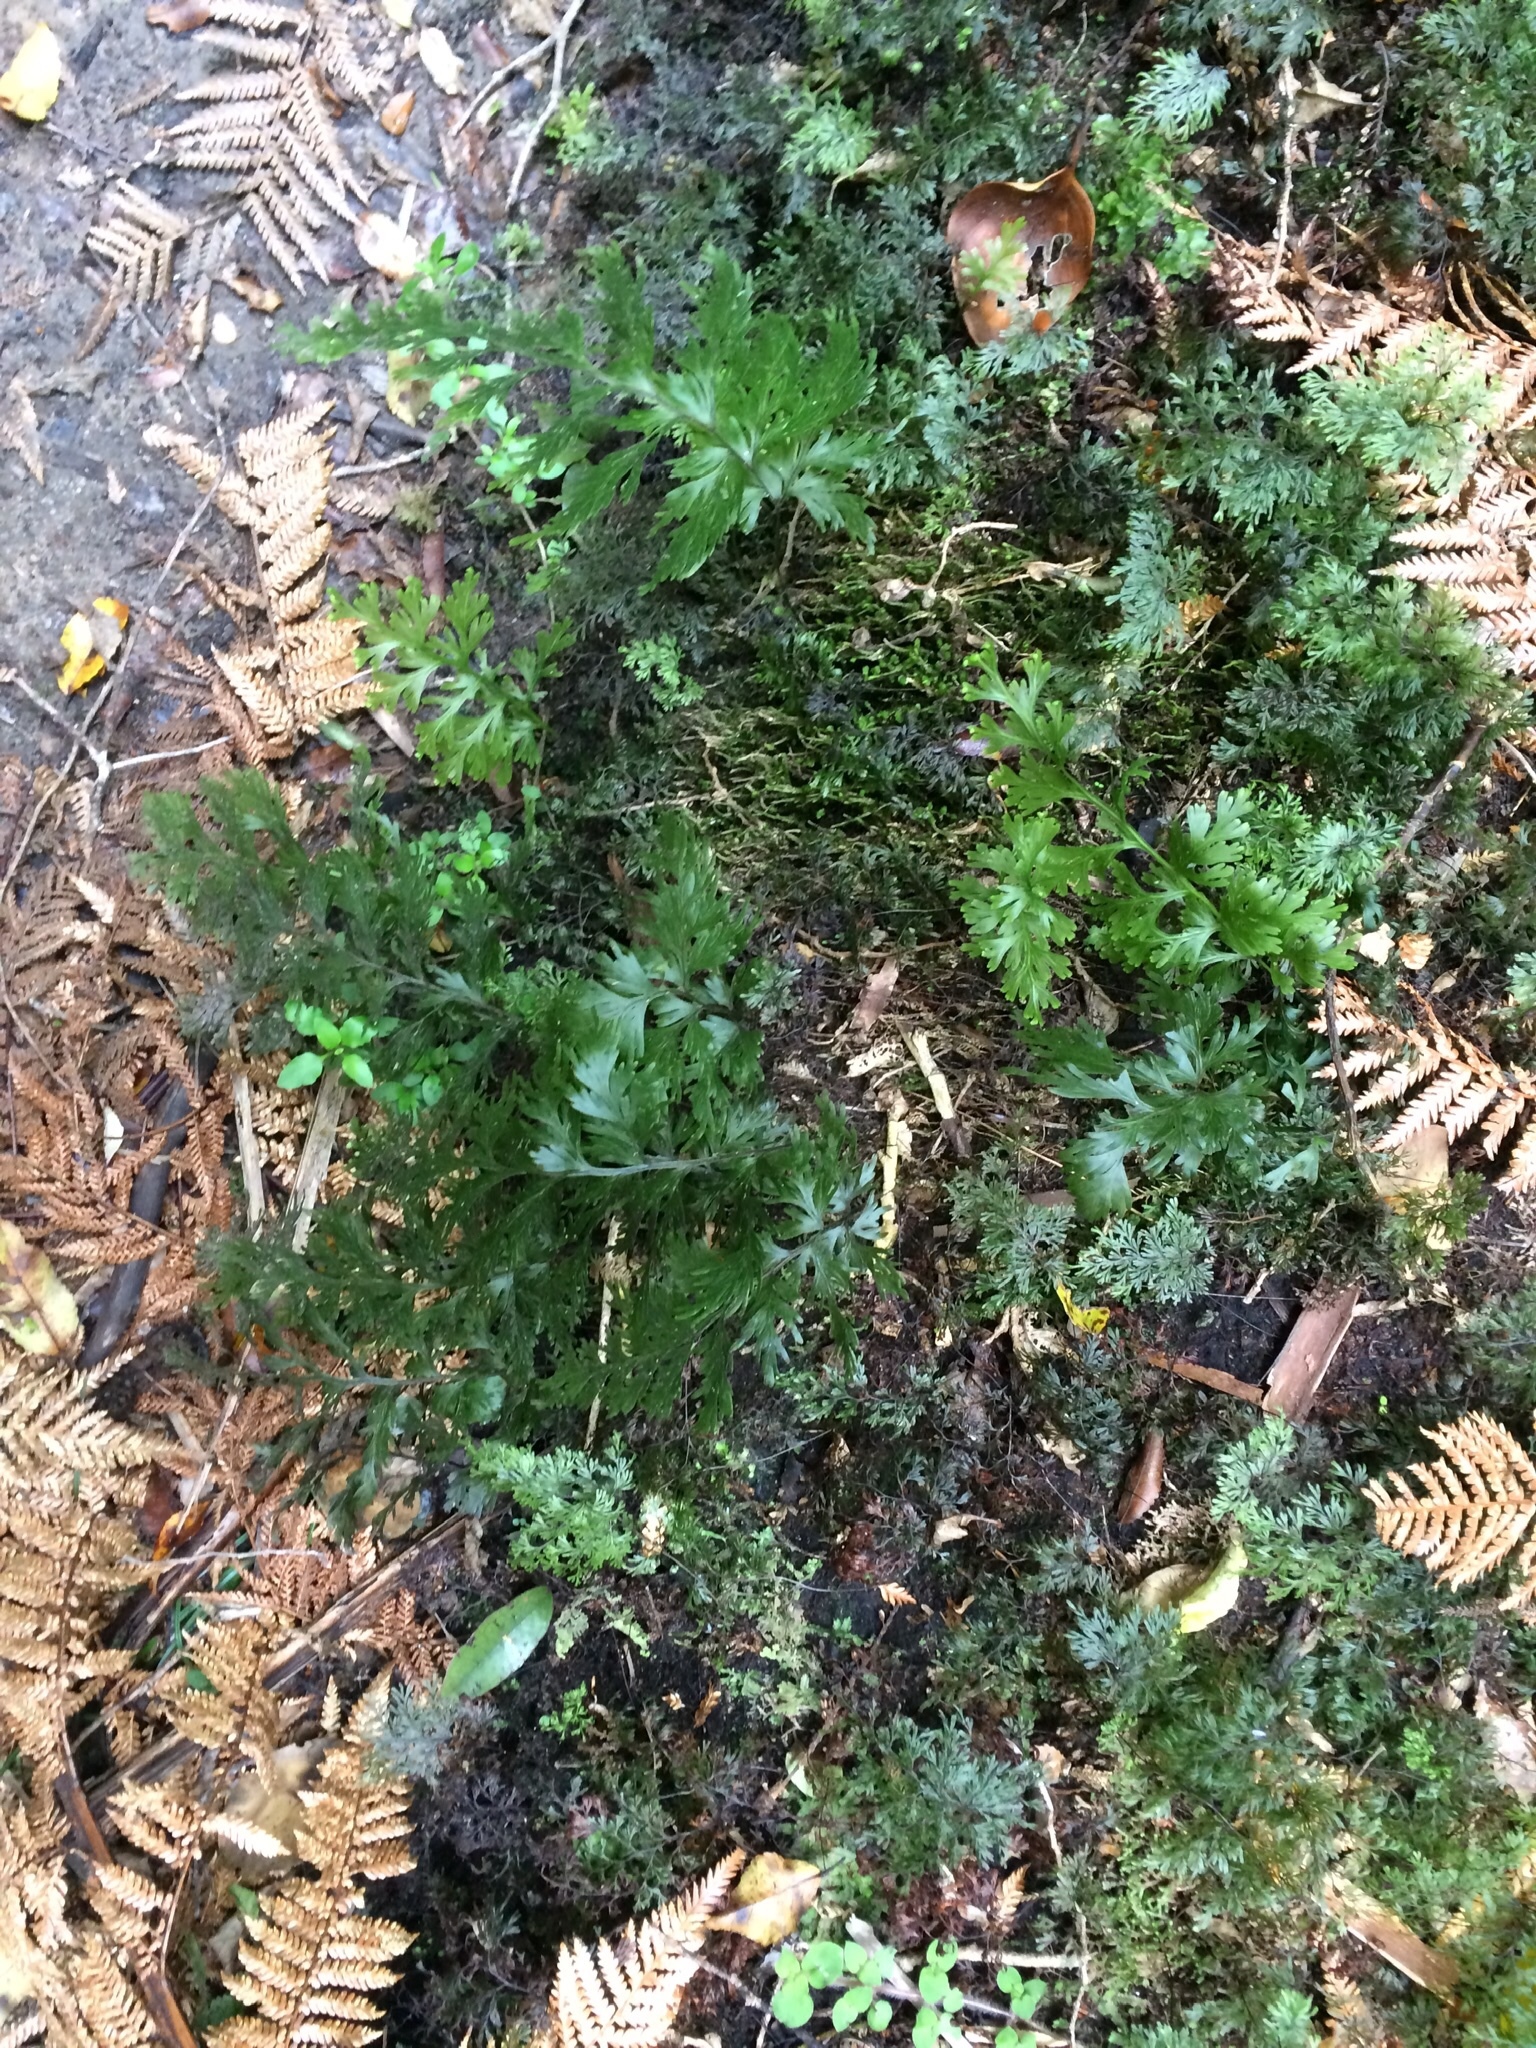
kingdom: Plantae
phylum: Tracheophyta
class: Polypodiopsida
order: Hymenophyllales
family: Hymenophyllaceae
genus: Hymenophyllum
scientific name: Hymenophyllum dilatatum
